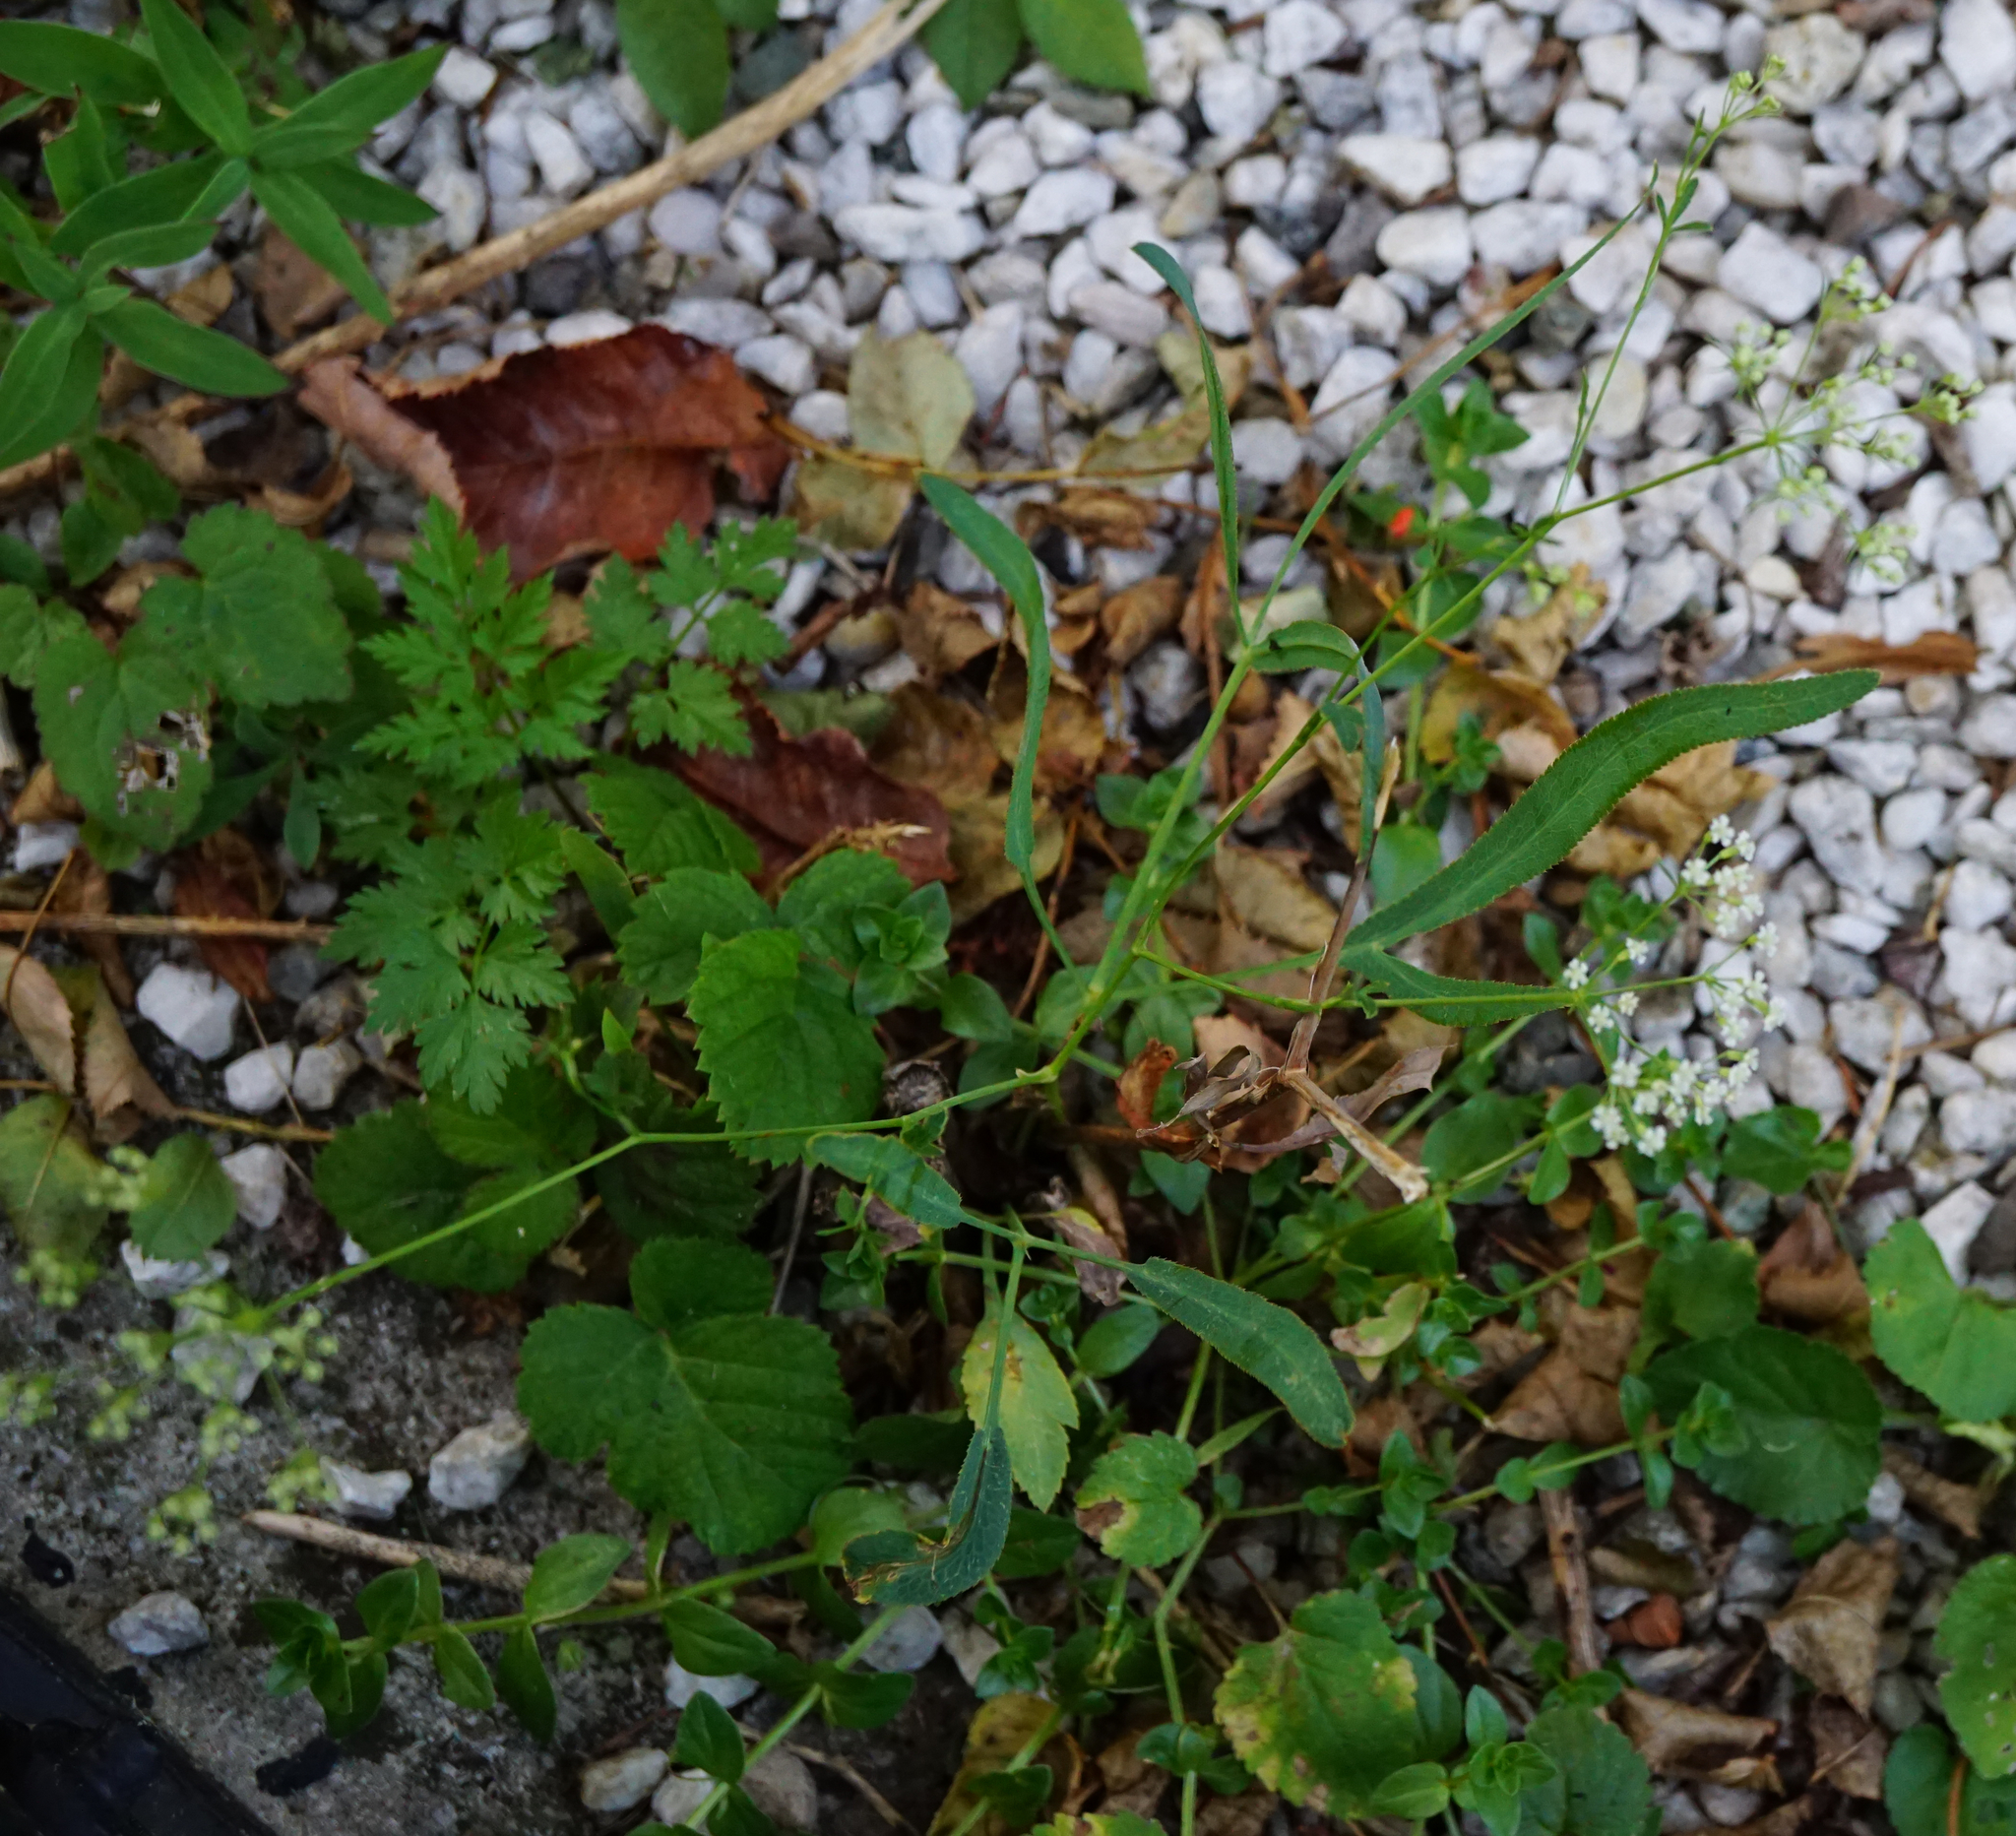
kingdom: Plantae
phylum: Tracheophyta
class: Magnoliopsida
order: Apiales
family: Apiaceae
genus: Falcaria
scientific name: Falcaria vulgaris
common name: Longleaf
